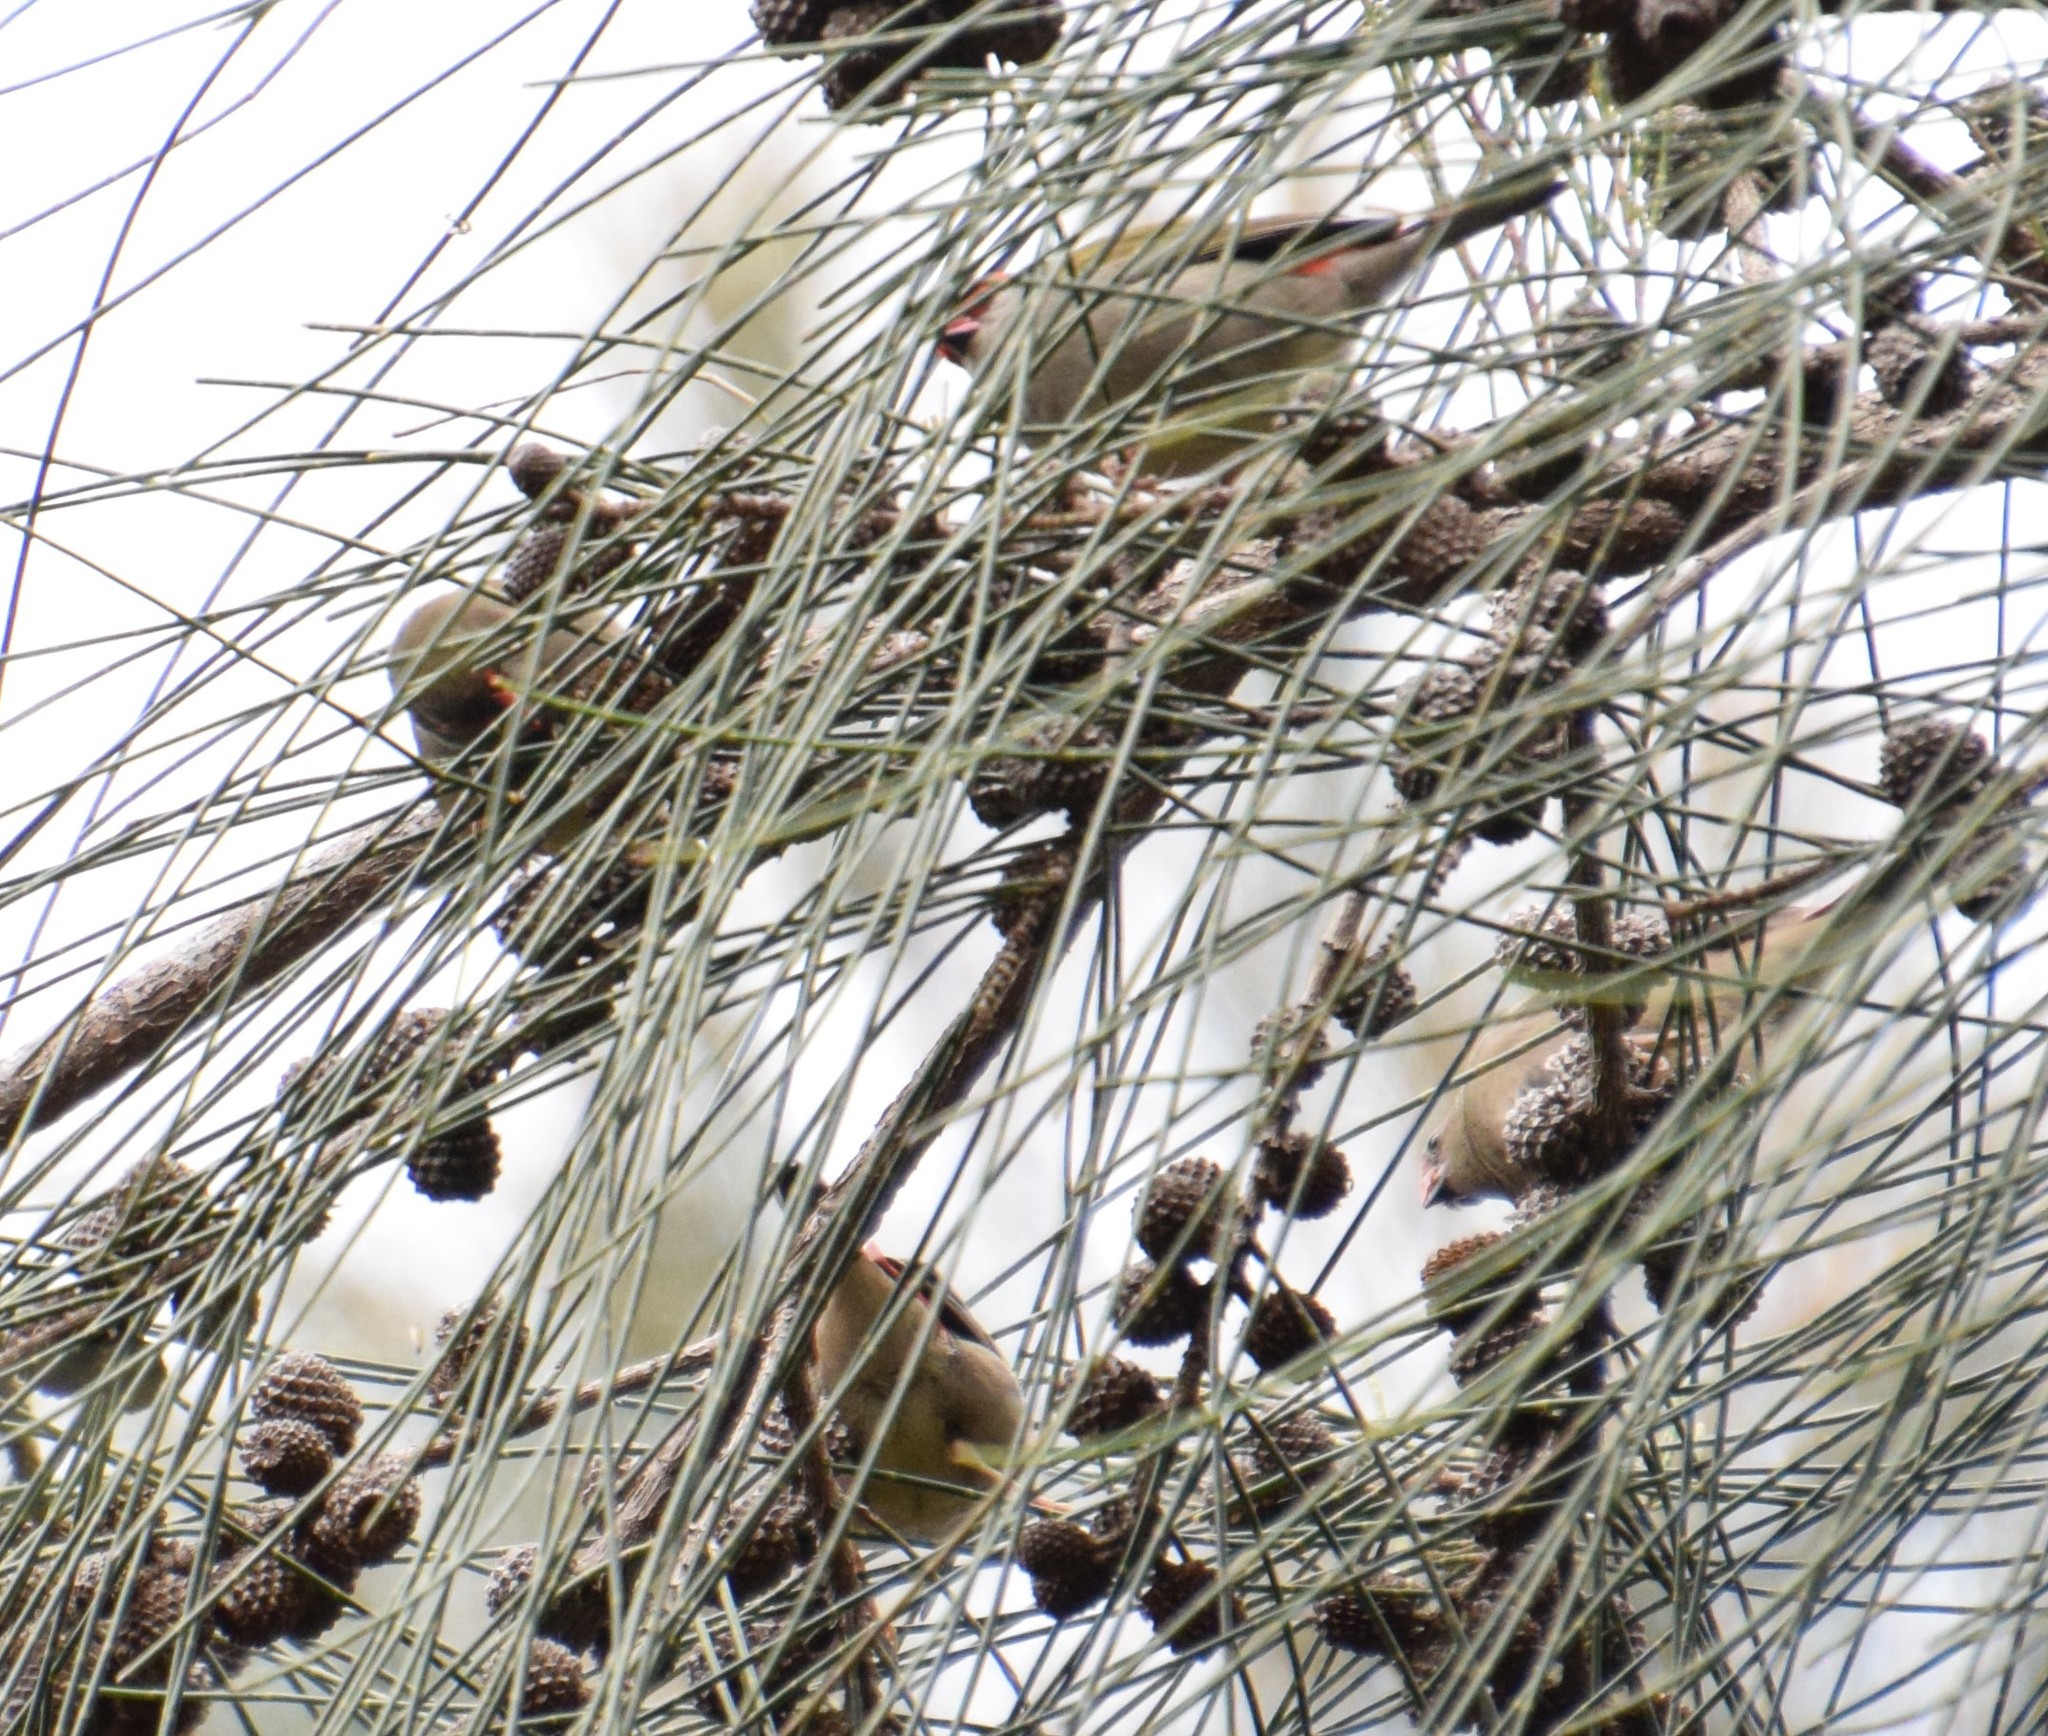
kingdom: Animalia
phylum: Chordata
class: Aves
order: Passeriformes
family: Estrildidae
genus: Neochmia
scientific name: Neochmia temporalis
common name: Red-browed finch
